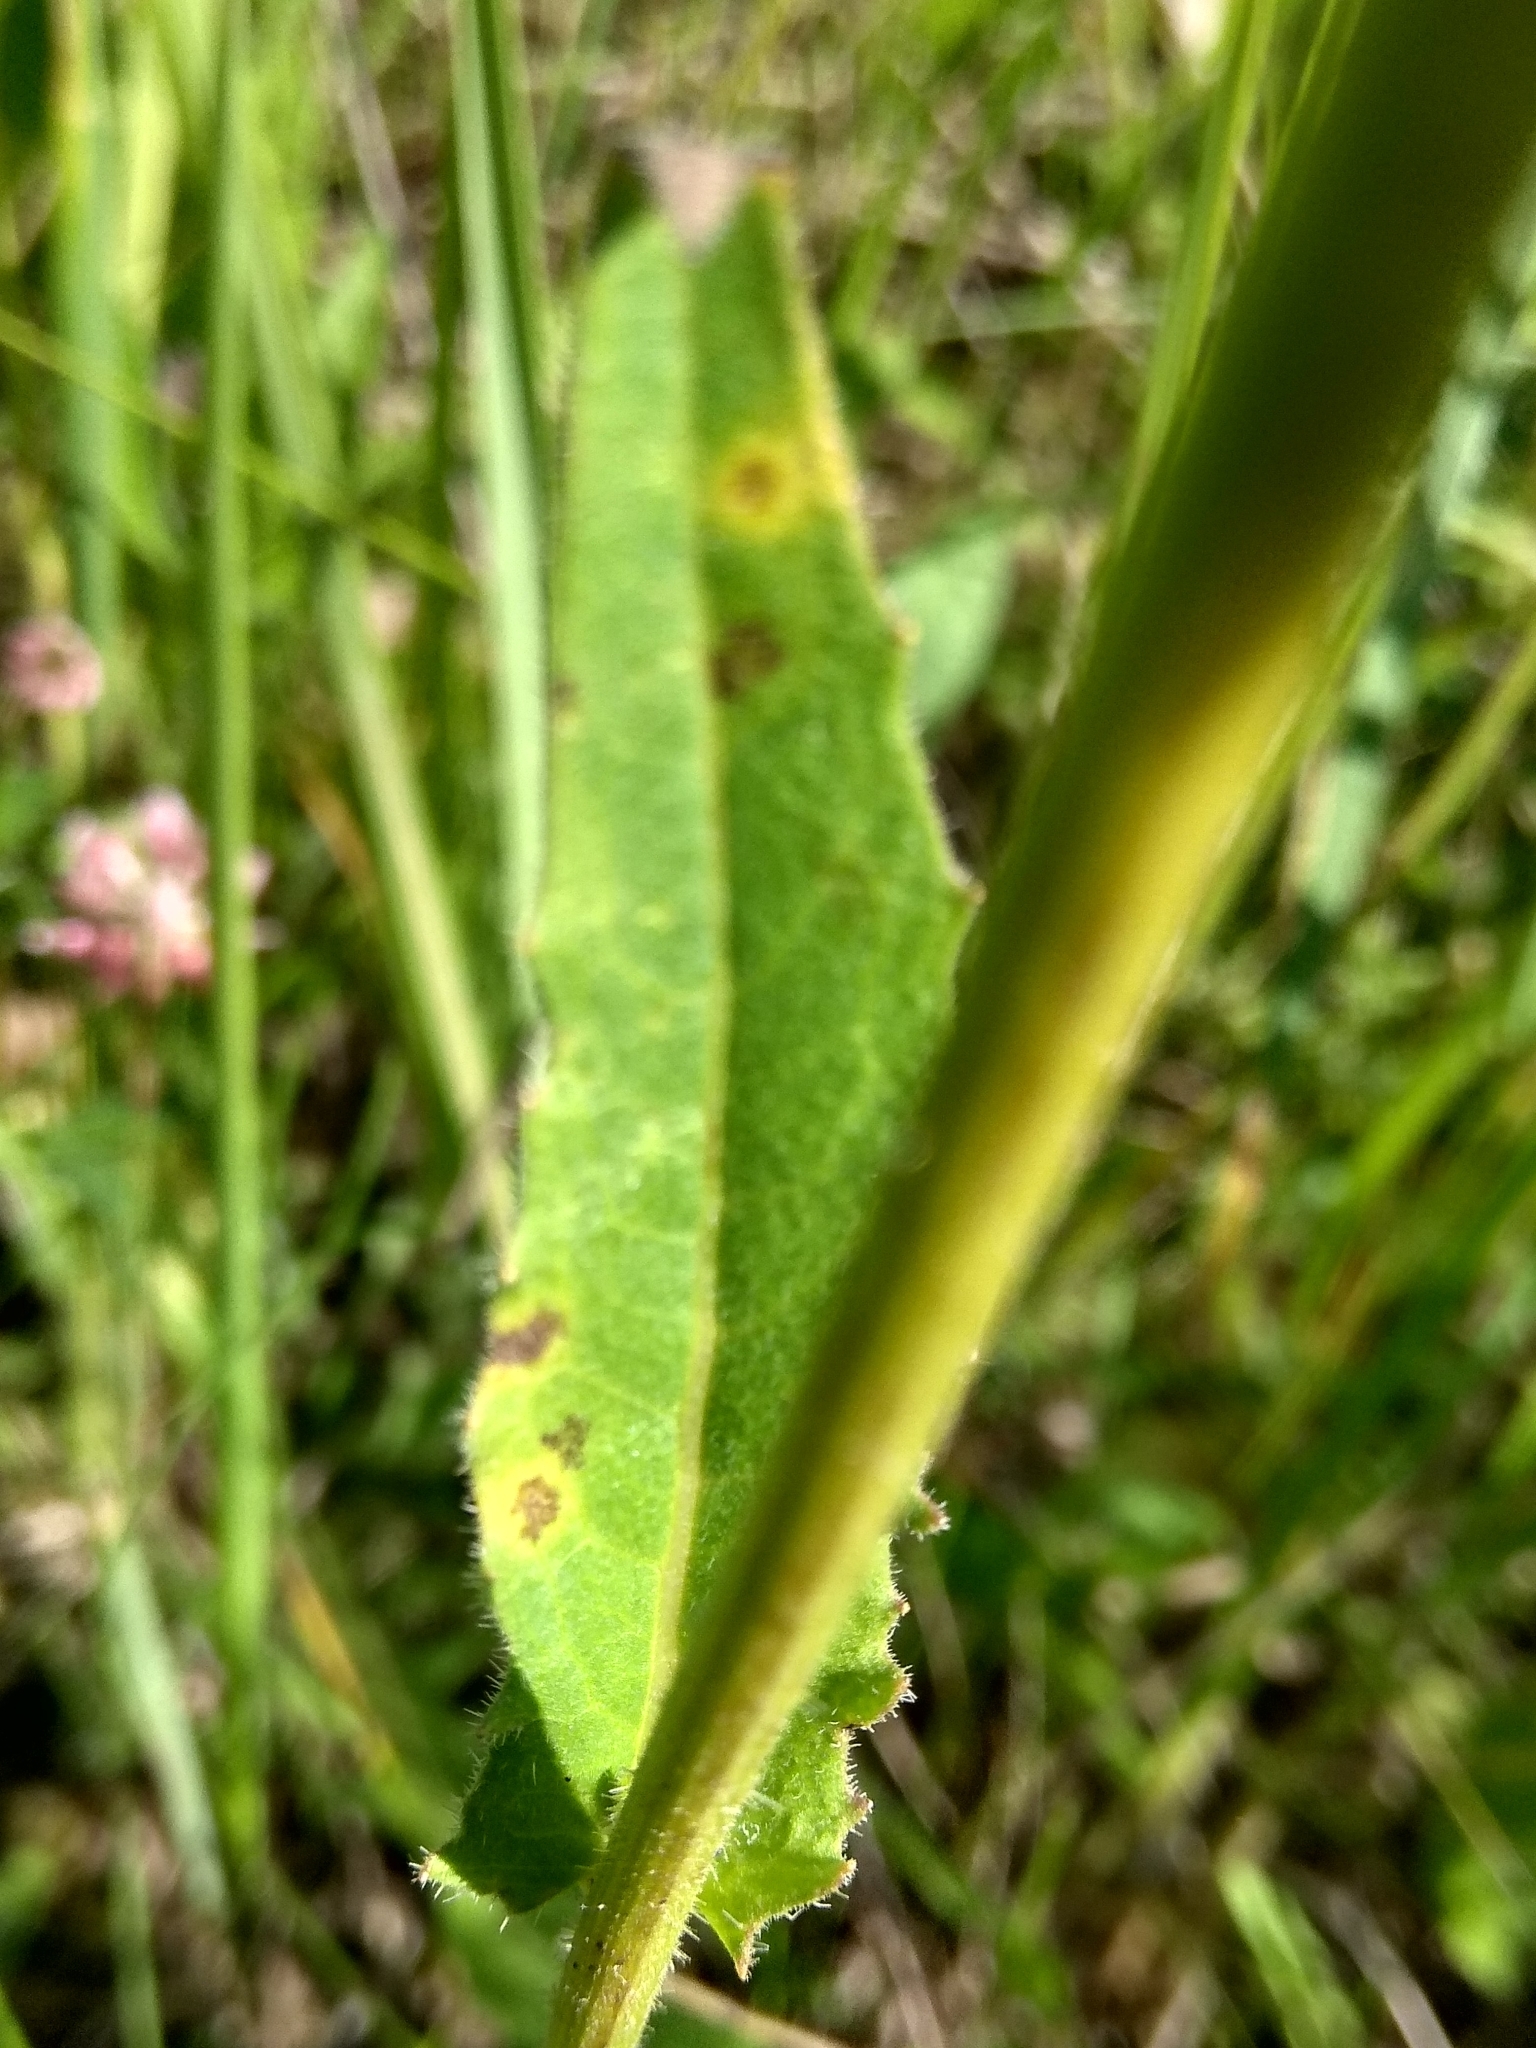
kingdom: Plantae
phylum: Tracheophyta
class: Magnoliopsida
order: Asterales
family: Asteraceae
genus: Picris
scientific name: Picris hieracioides
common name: Hawkweed oxtongue
